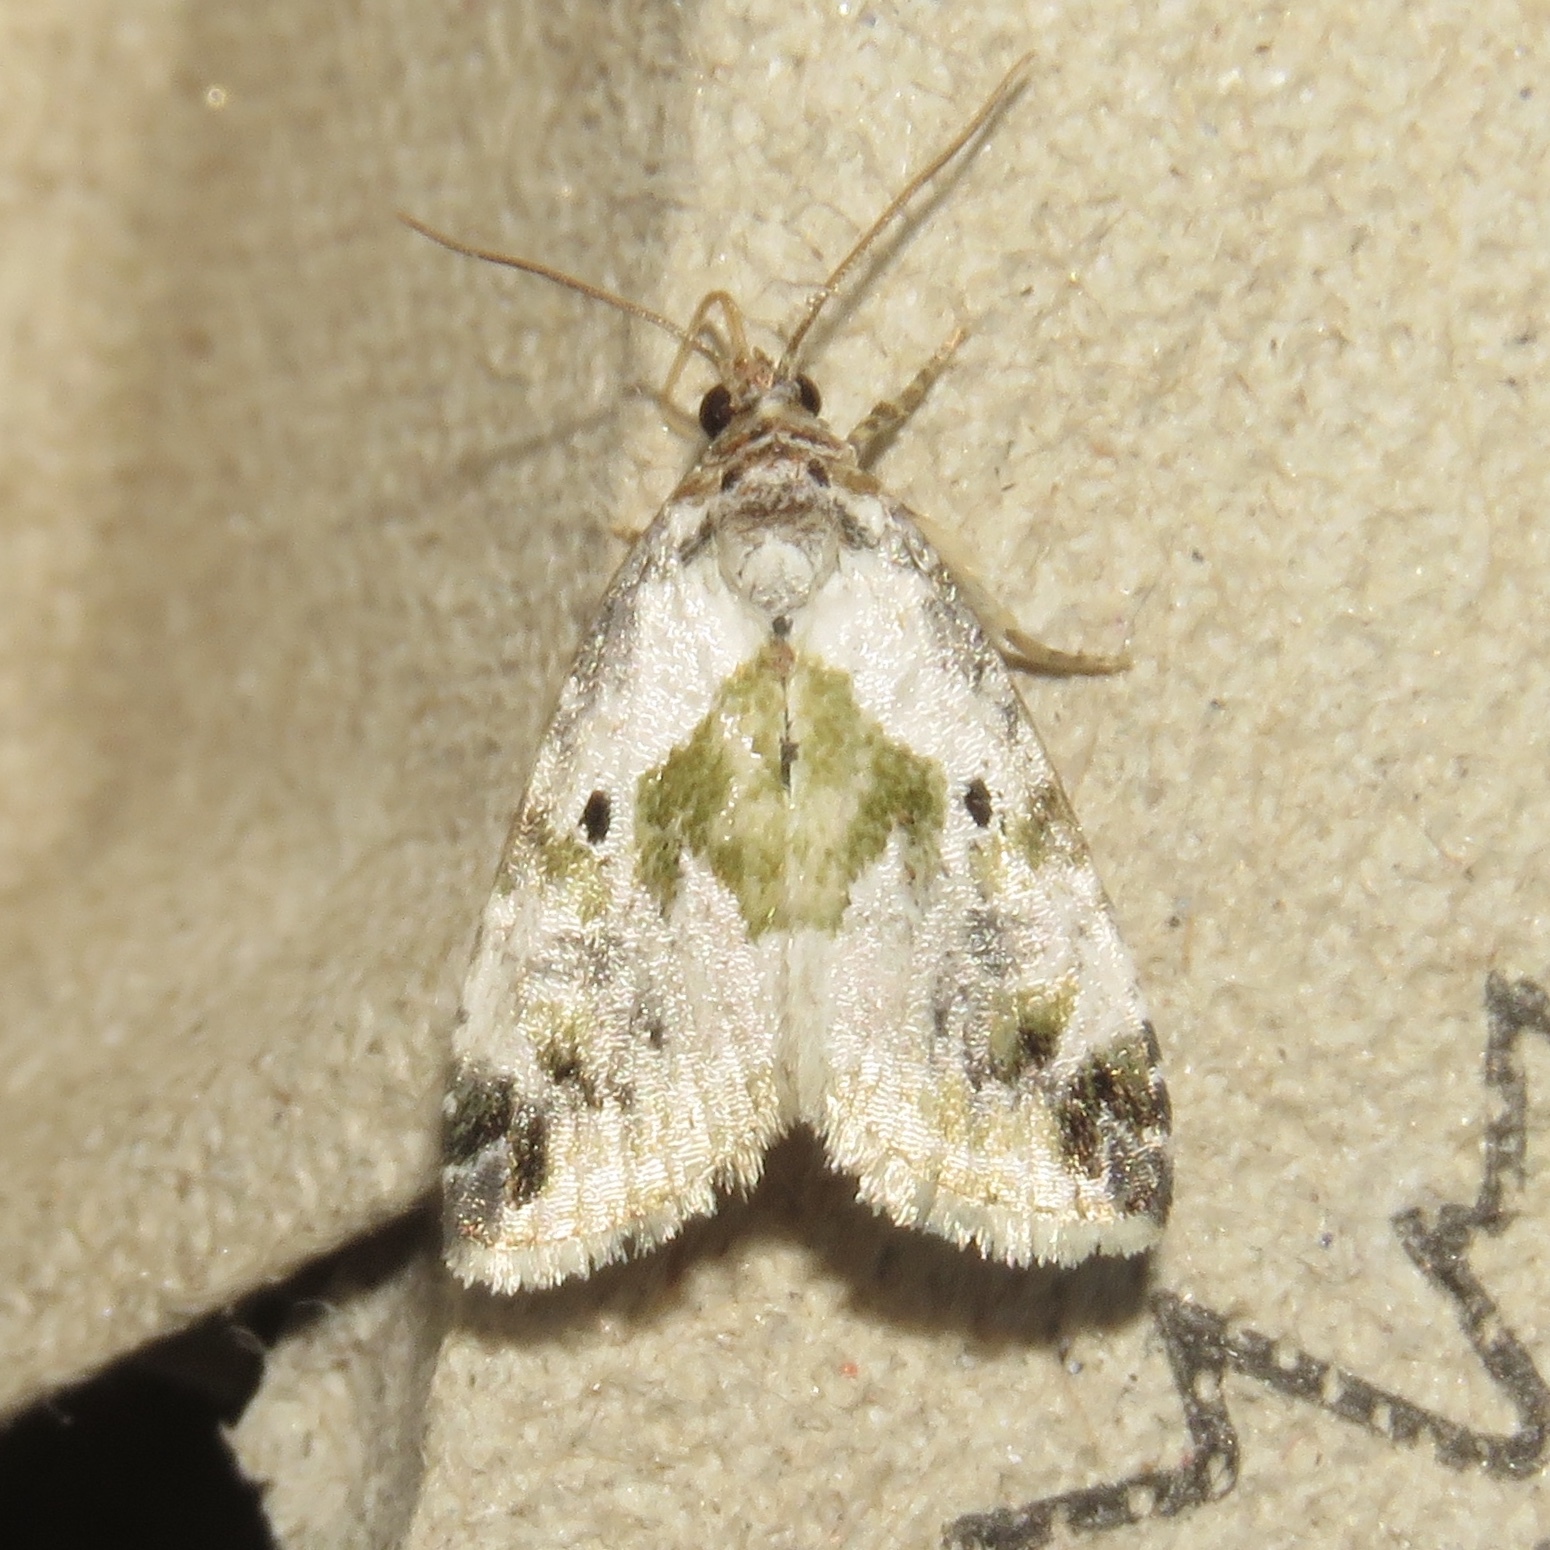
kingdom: Animalia
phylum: Arthropoda
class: Insecta
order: Lepidoptera
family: Noctuidae
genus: Maliattha
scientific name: Maliattha synochitis
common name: Black-dotted glyph
